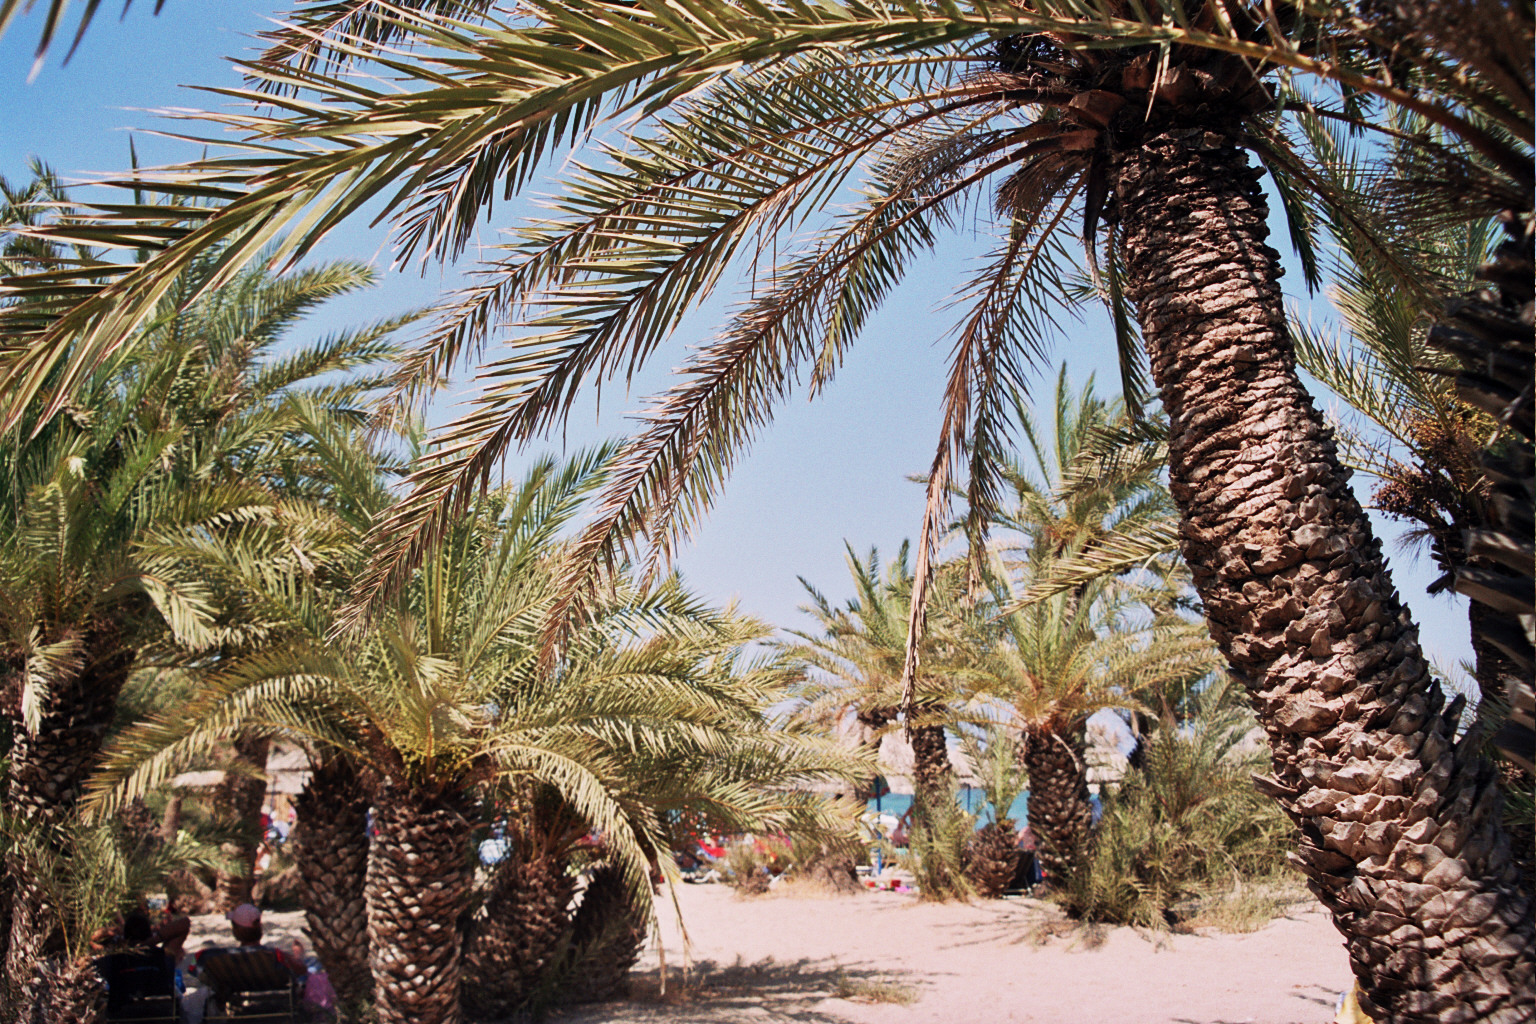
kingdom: Plantae
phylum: Tracheophyta
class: Liliopsida
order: Arecales
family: Arecaceae
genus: Phoenix
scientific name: Phoenix theophrasti
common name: Cretan date palm
